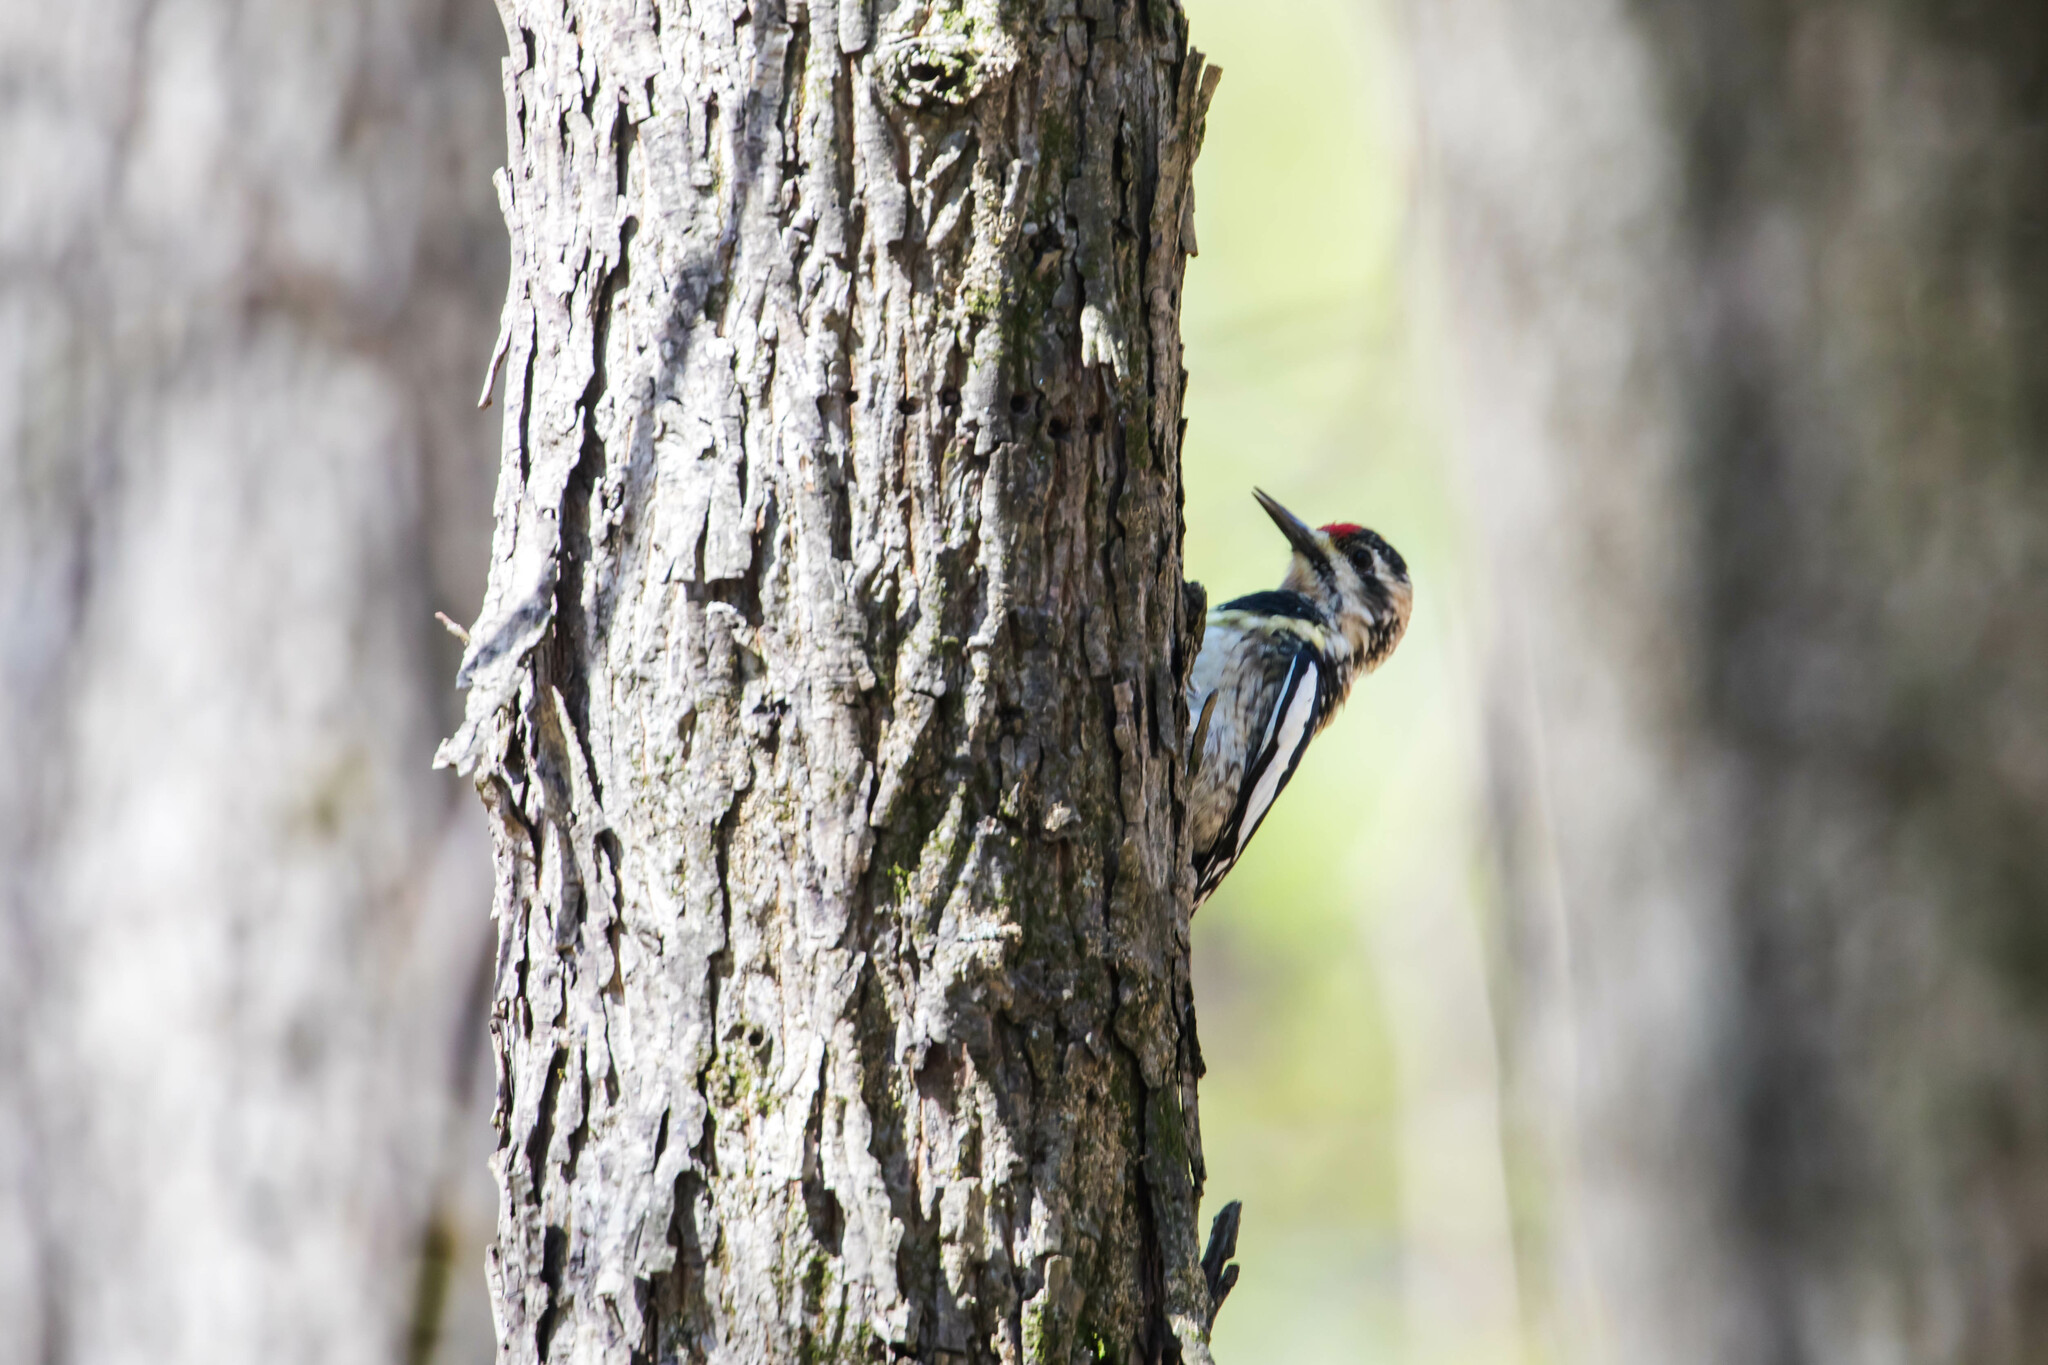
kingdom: Animalia
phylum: Chordata
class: Aves
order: Piciformes
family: Picidae
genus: Sphyrapicus
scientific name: Sphyrapicus varius
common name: Yellow-bellied sapsucker
